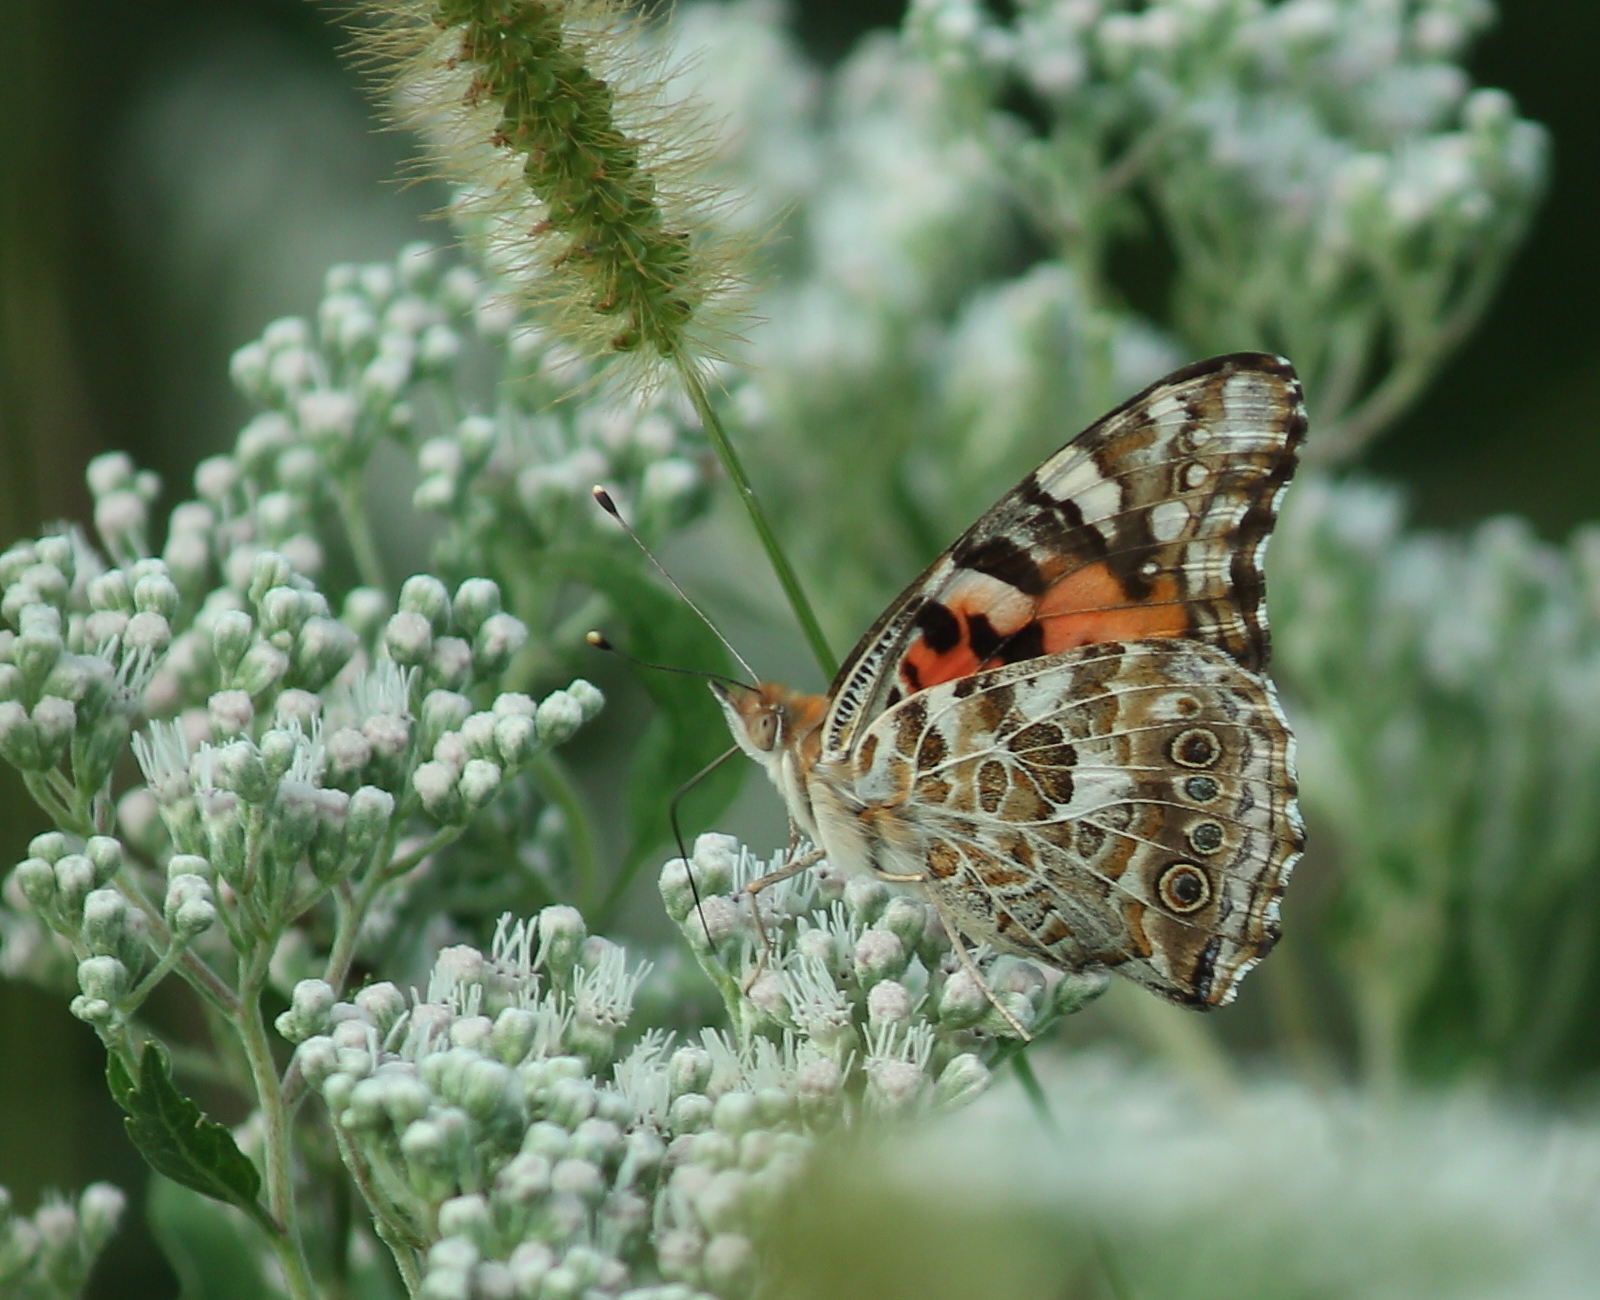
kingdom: Animalia
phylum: Arthropoda
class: Insecta
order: Lepidoptera
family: Nymphalidae
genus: Vanessa
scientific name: Vanessa cardui
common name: Painted lady
